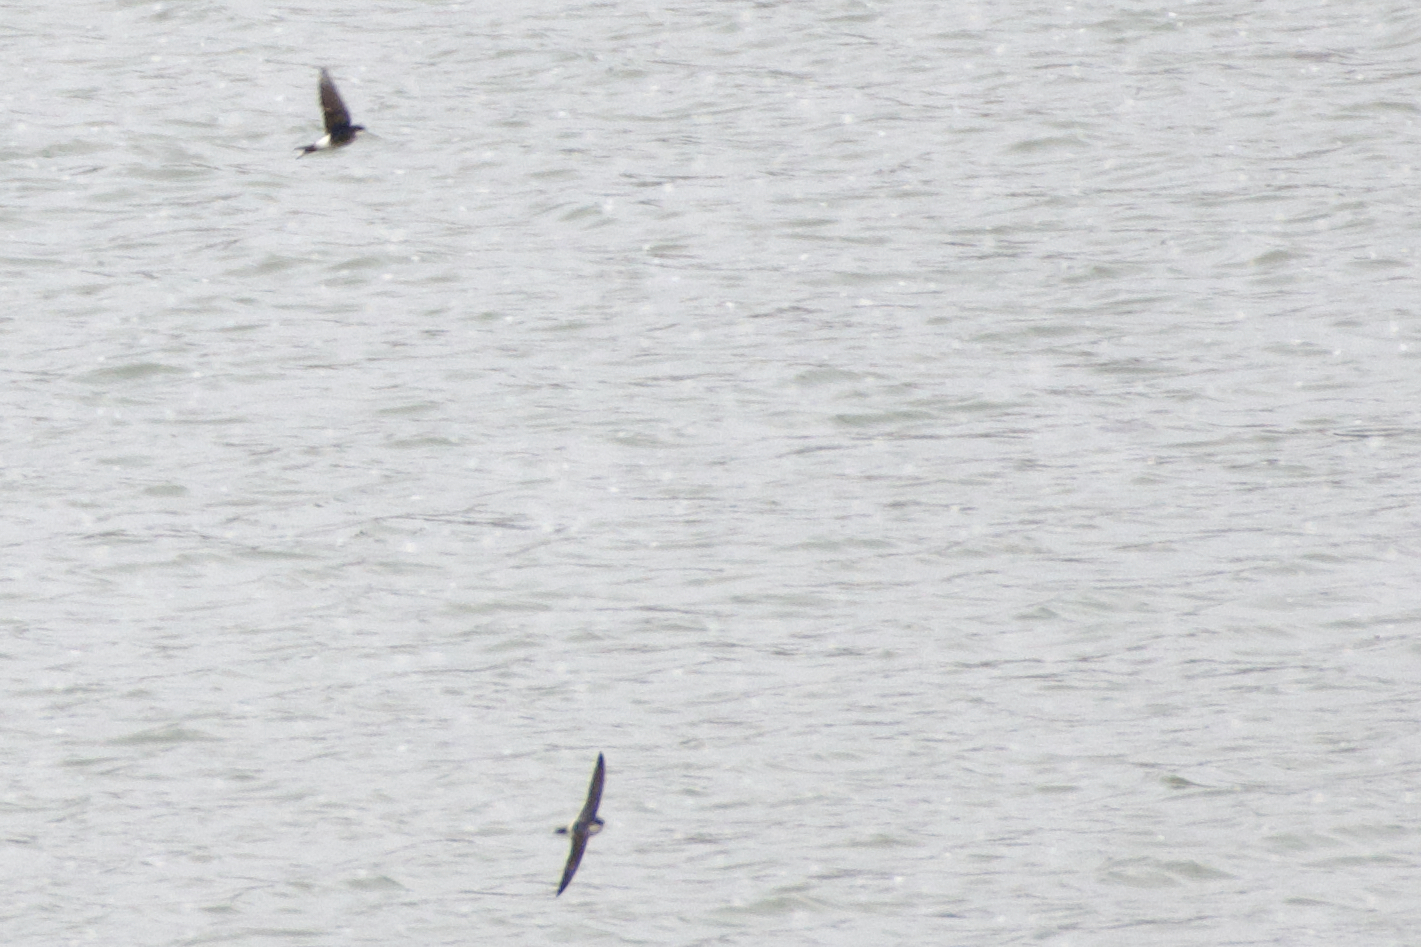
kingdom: Animalia
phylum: Chordata
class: Aves
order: Passeriformes
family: Hirundinidae
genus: Delichon
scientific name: Delichon urbicum
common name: Common house martin
